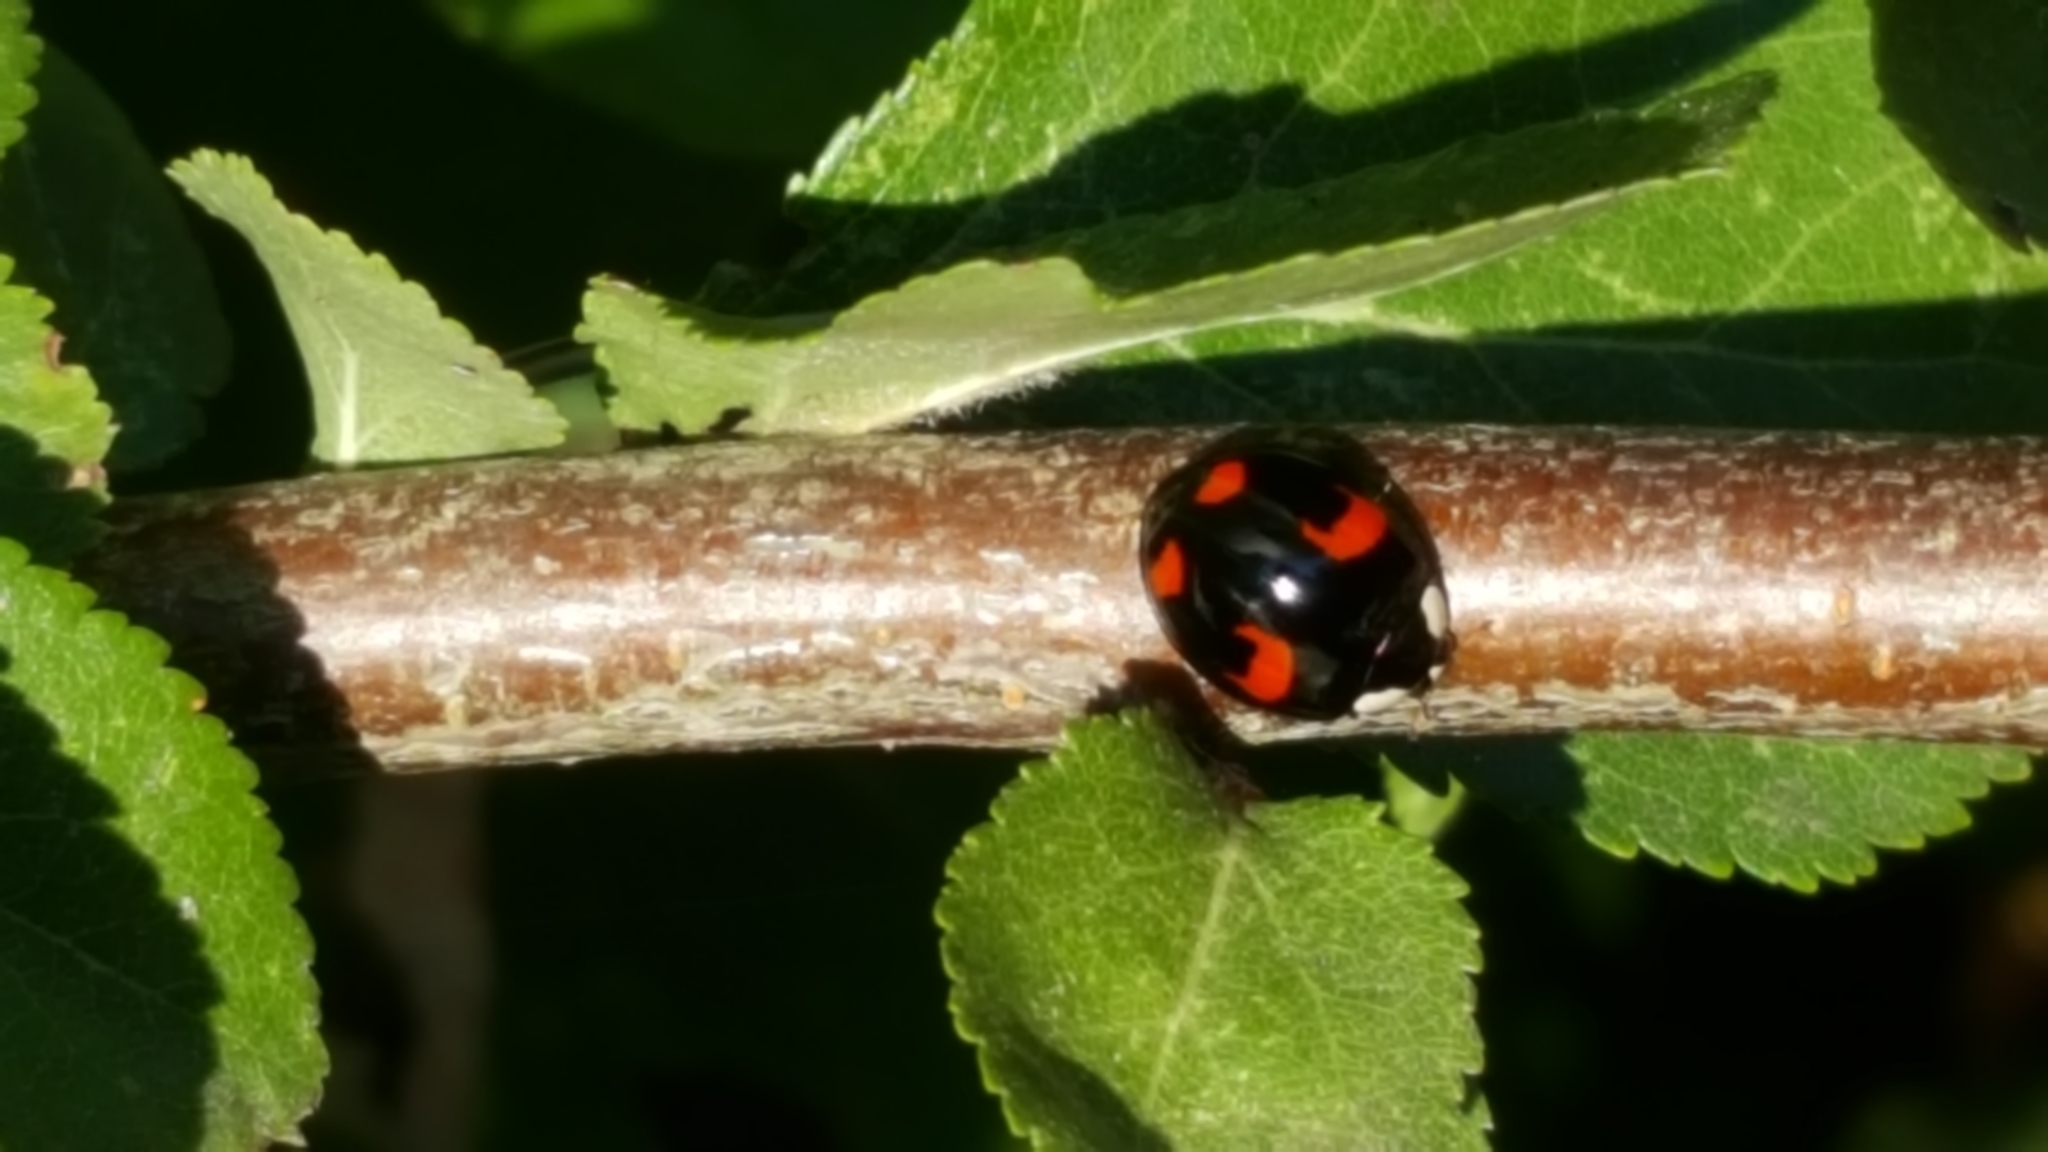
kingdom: Animalia
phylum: Arthropoda
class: Insecta
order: Coleoptera
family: Coccinellidae
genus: Harmonia
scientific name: Harmonia axyridis
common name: Harlequin ladybird
